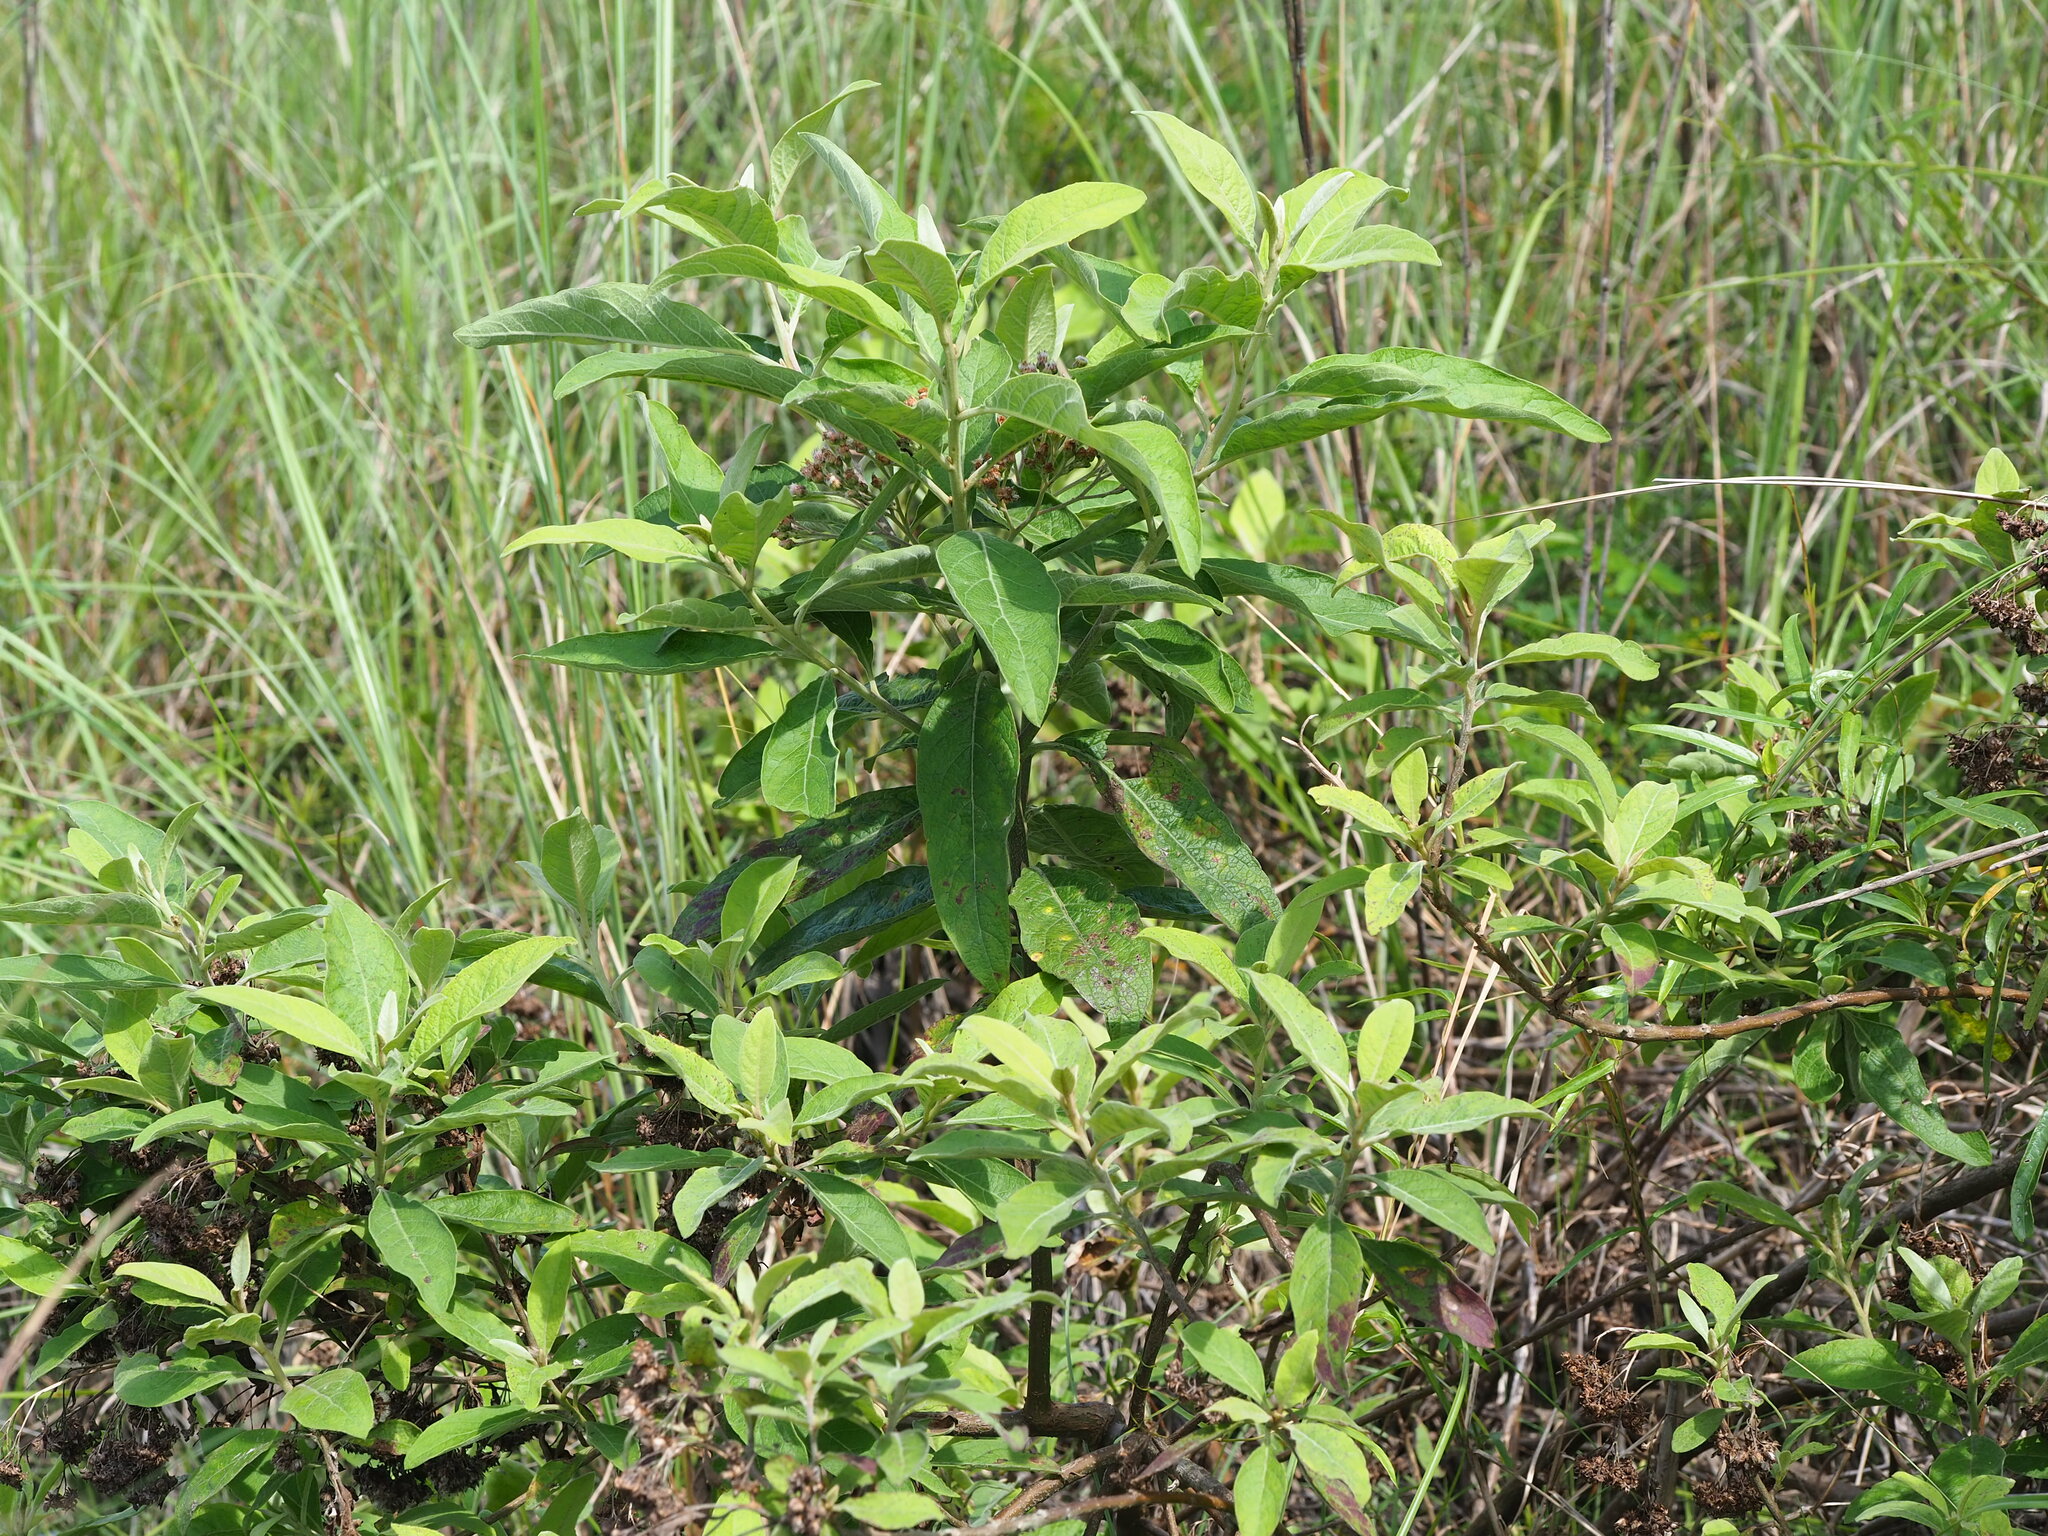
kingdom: Plantae
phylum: Tracheophyta
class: Magnoliopsida
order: Asterales
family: Asteraceae
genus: Pluchea
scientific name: Pluchea carolinensis
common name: Marsh fleabane
